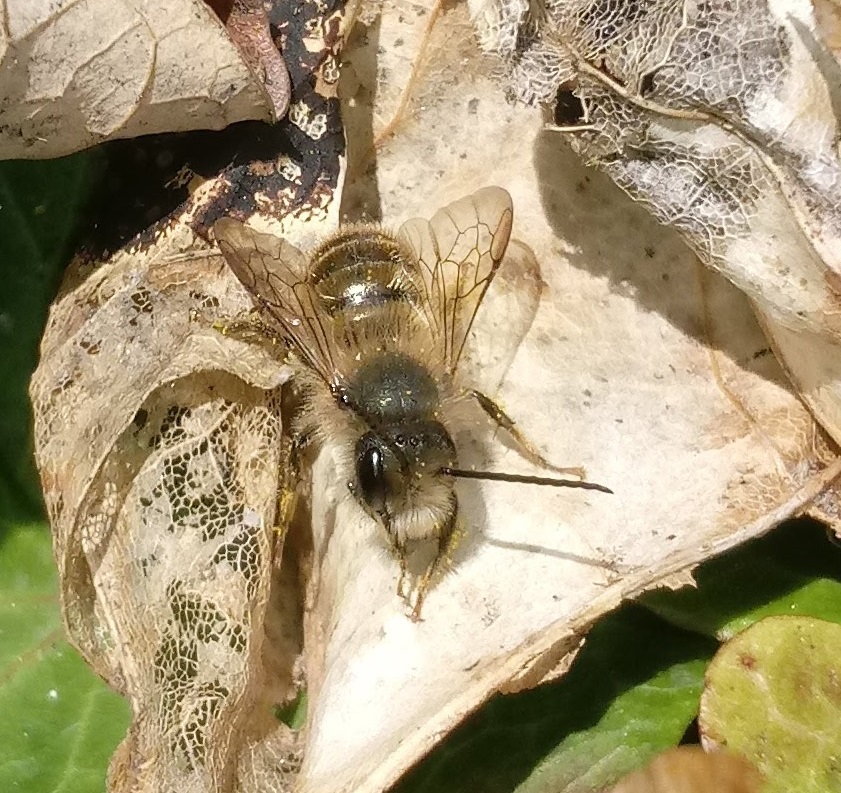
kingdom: Animalia
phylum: Arthropoda
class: Insecta
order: Hymenoptera
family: Megachilidae
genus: Osmia
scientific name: Osmia cornifrons
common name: Horn-faced bee
